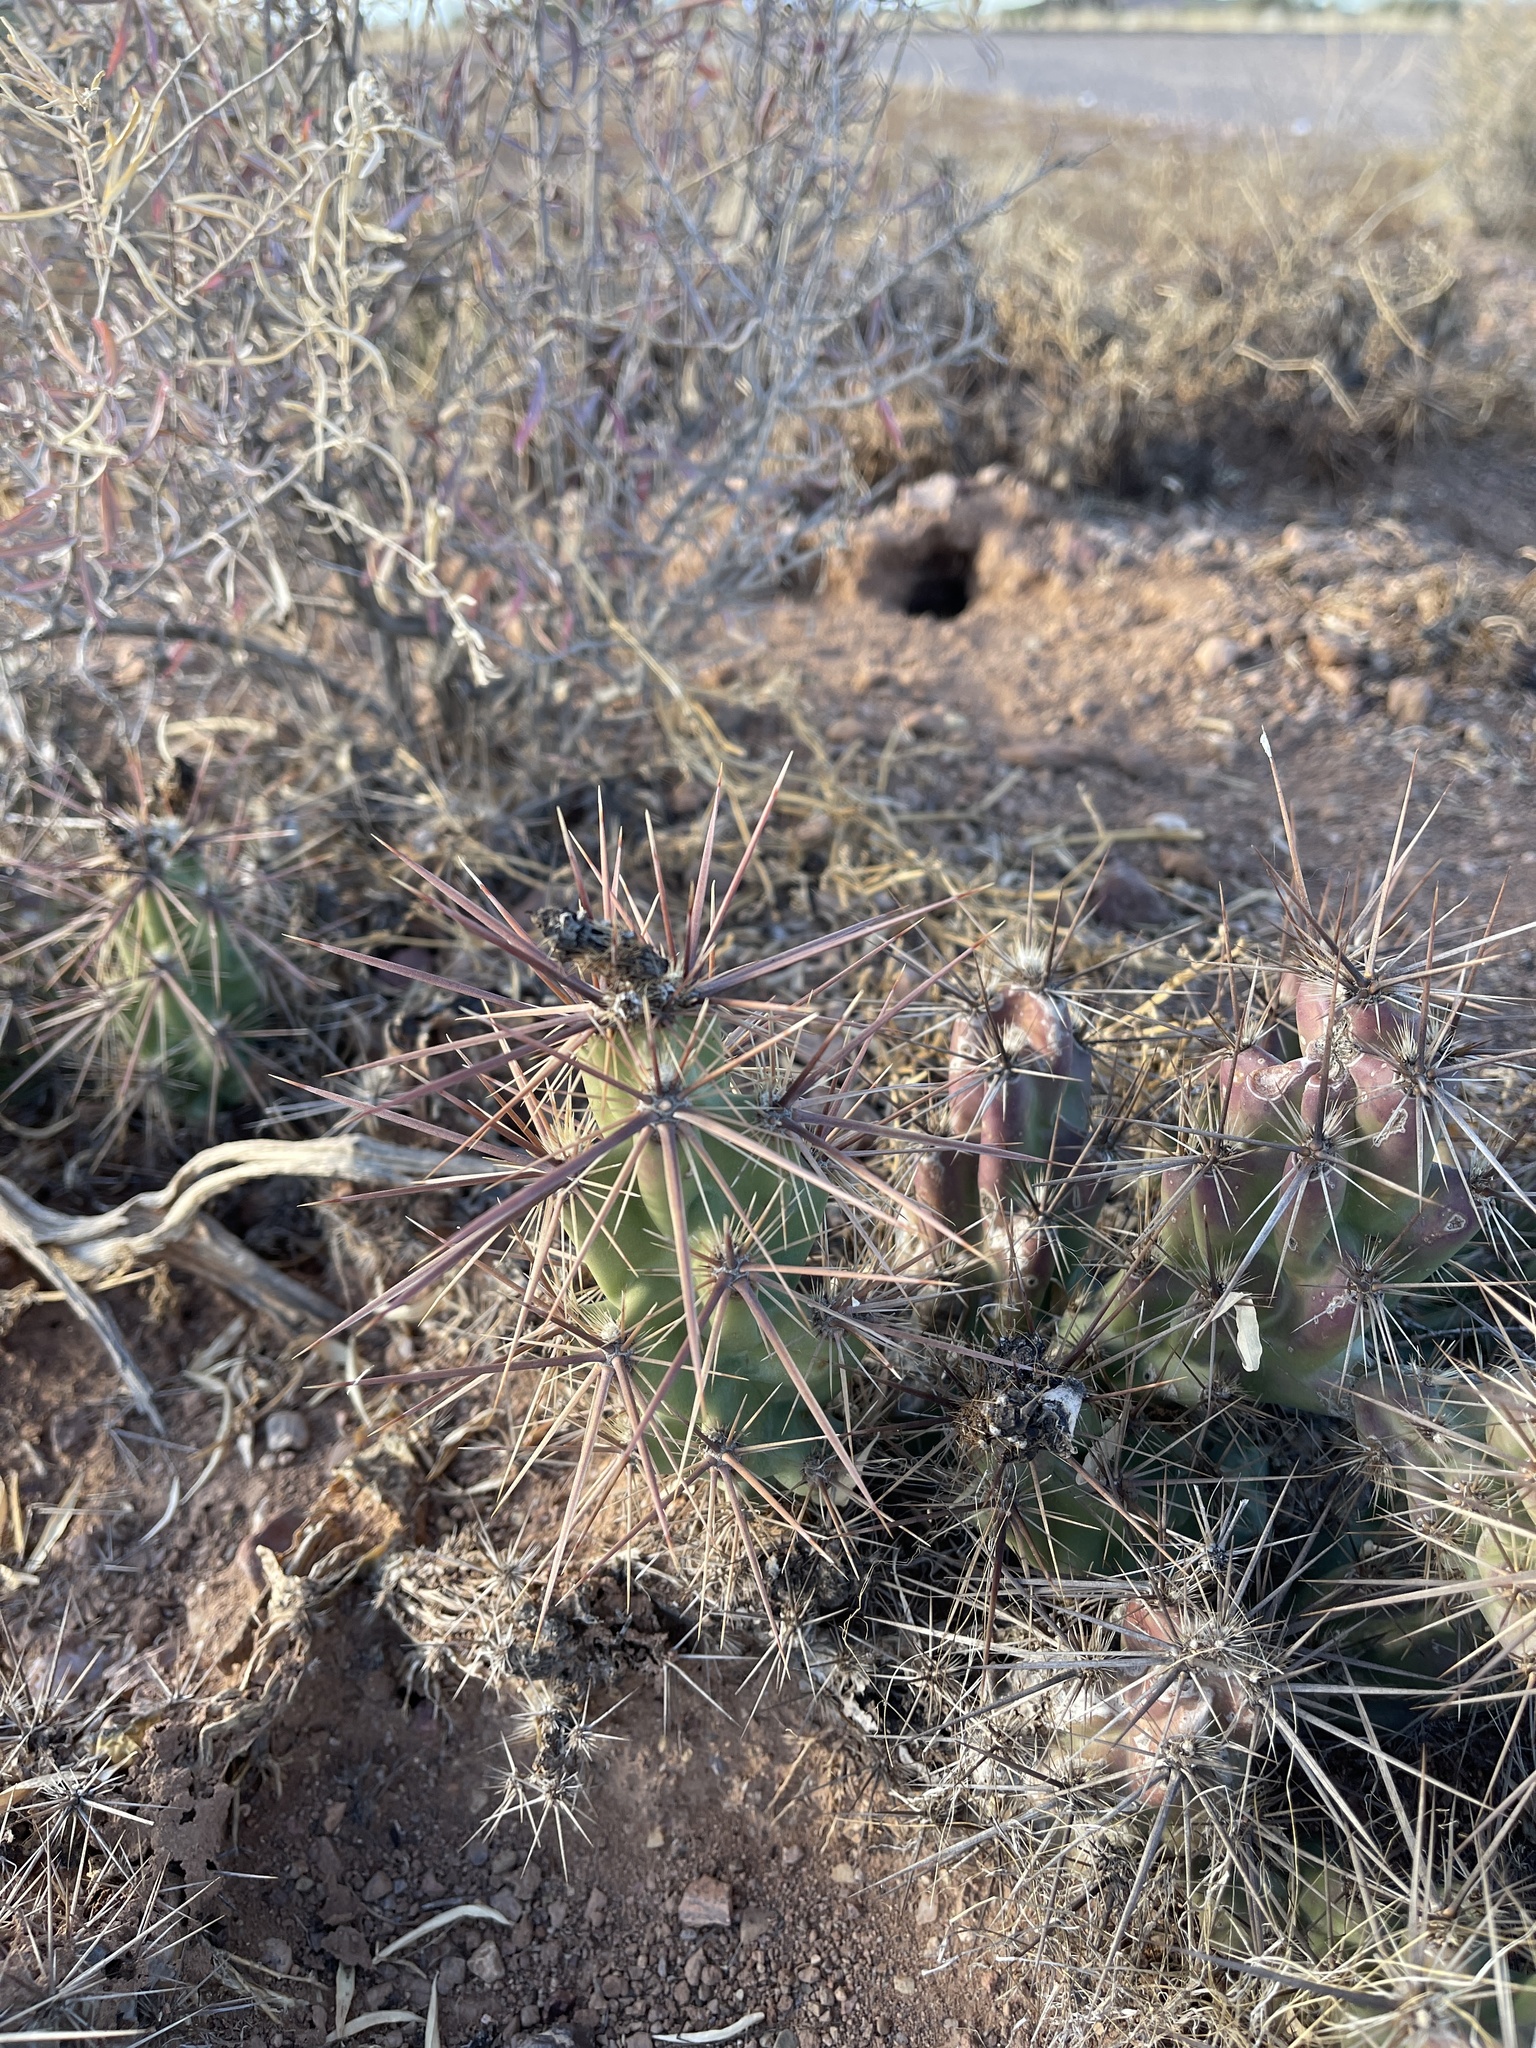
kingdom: Plantae
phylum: Tracheophyta
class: Magnoliopsida
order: Caryophyllales
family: Cactaceae
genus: Grusonia
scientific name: Grusonia emoryi
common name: Stanly's club cholla
